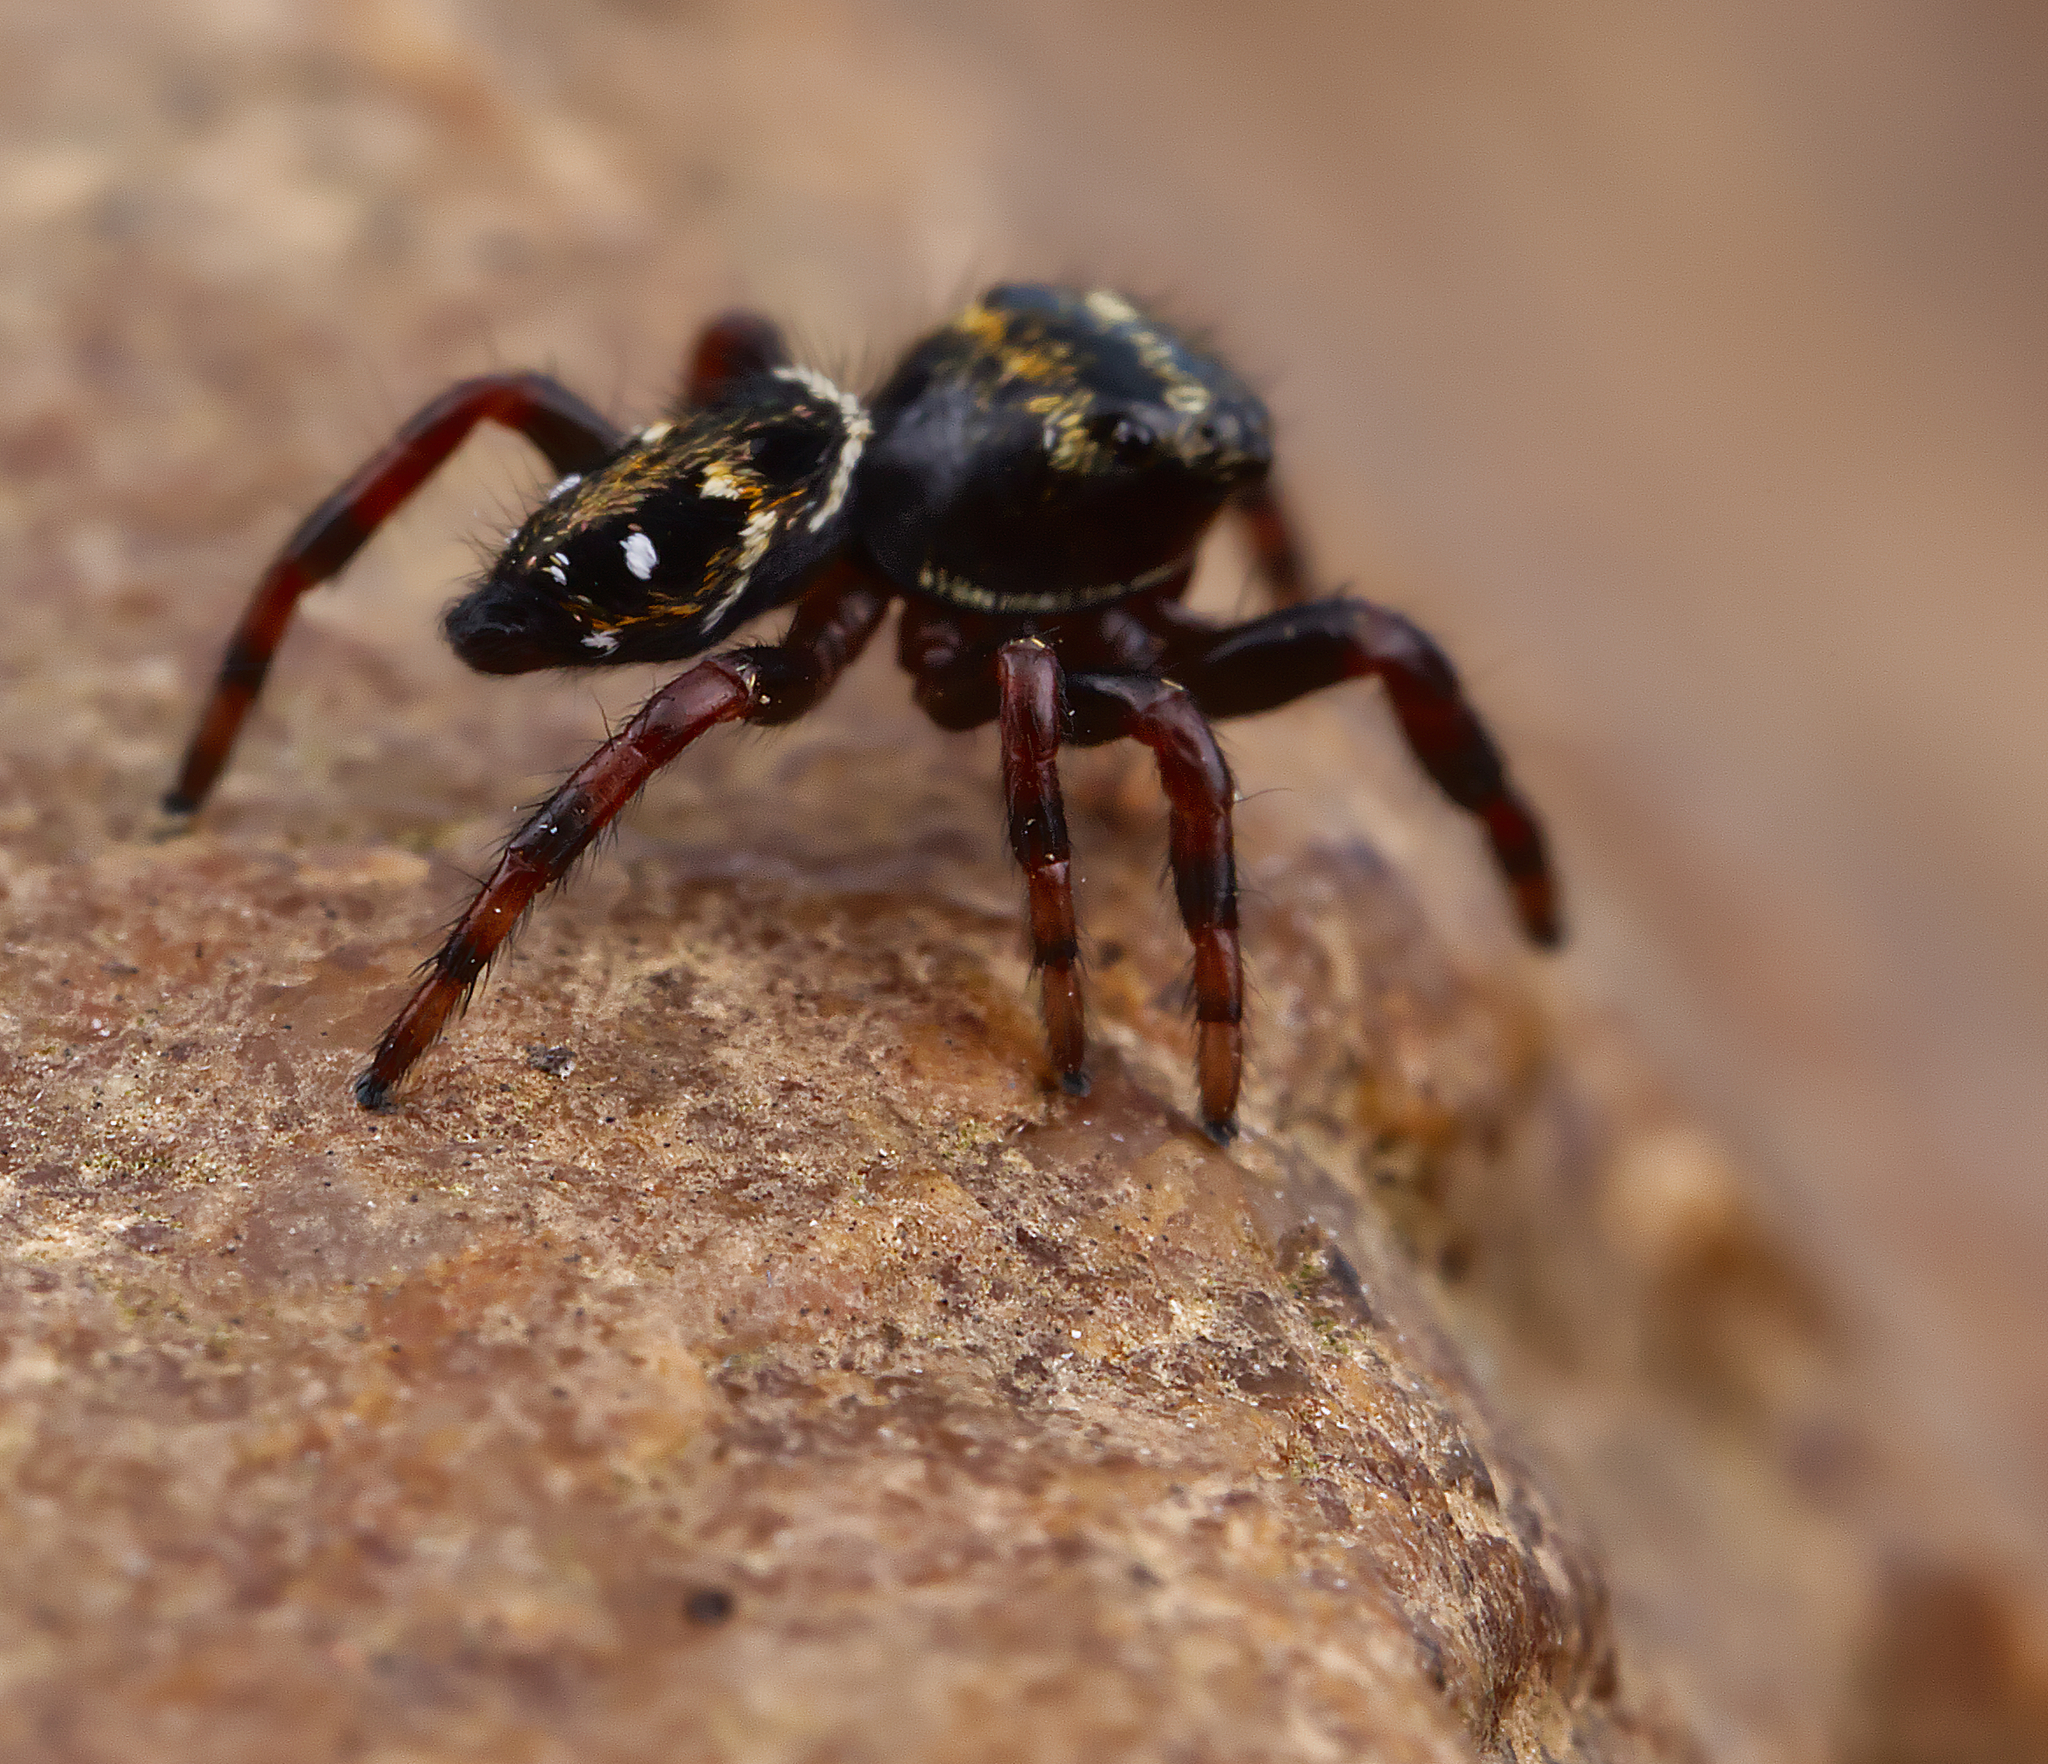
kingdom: Animalia
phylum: Arthropoda
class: Arachnida
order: Araneae
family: Salticidae
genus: Phidippus
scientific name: Phidippus clarus
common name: Brilliant jumping spider
